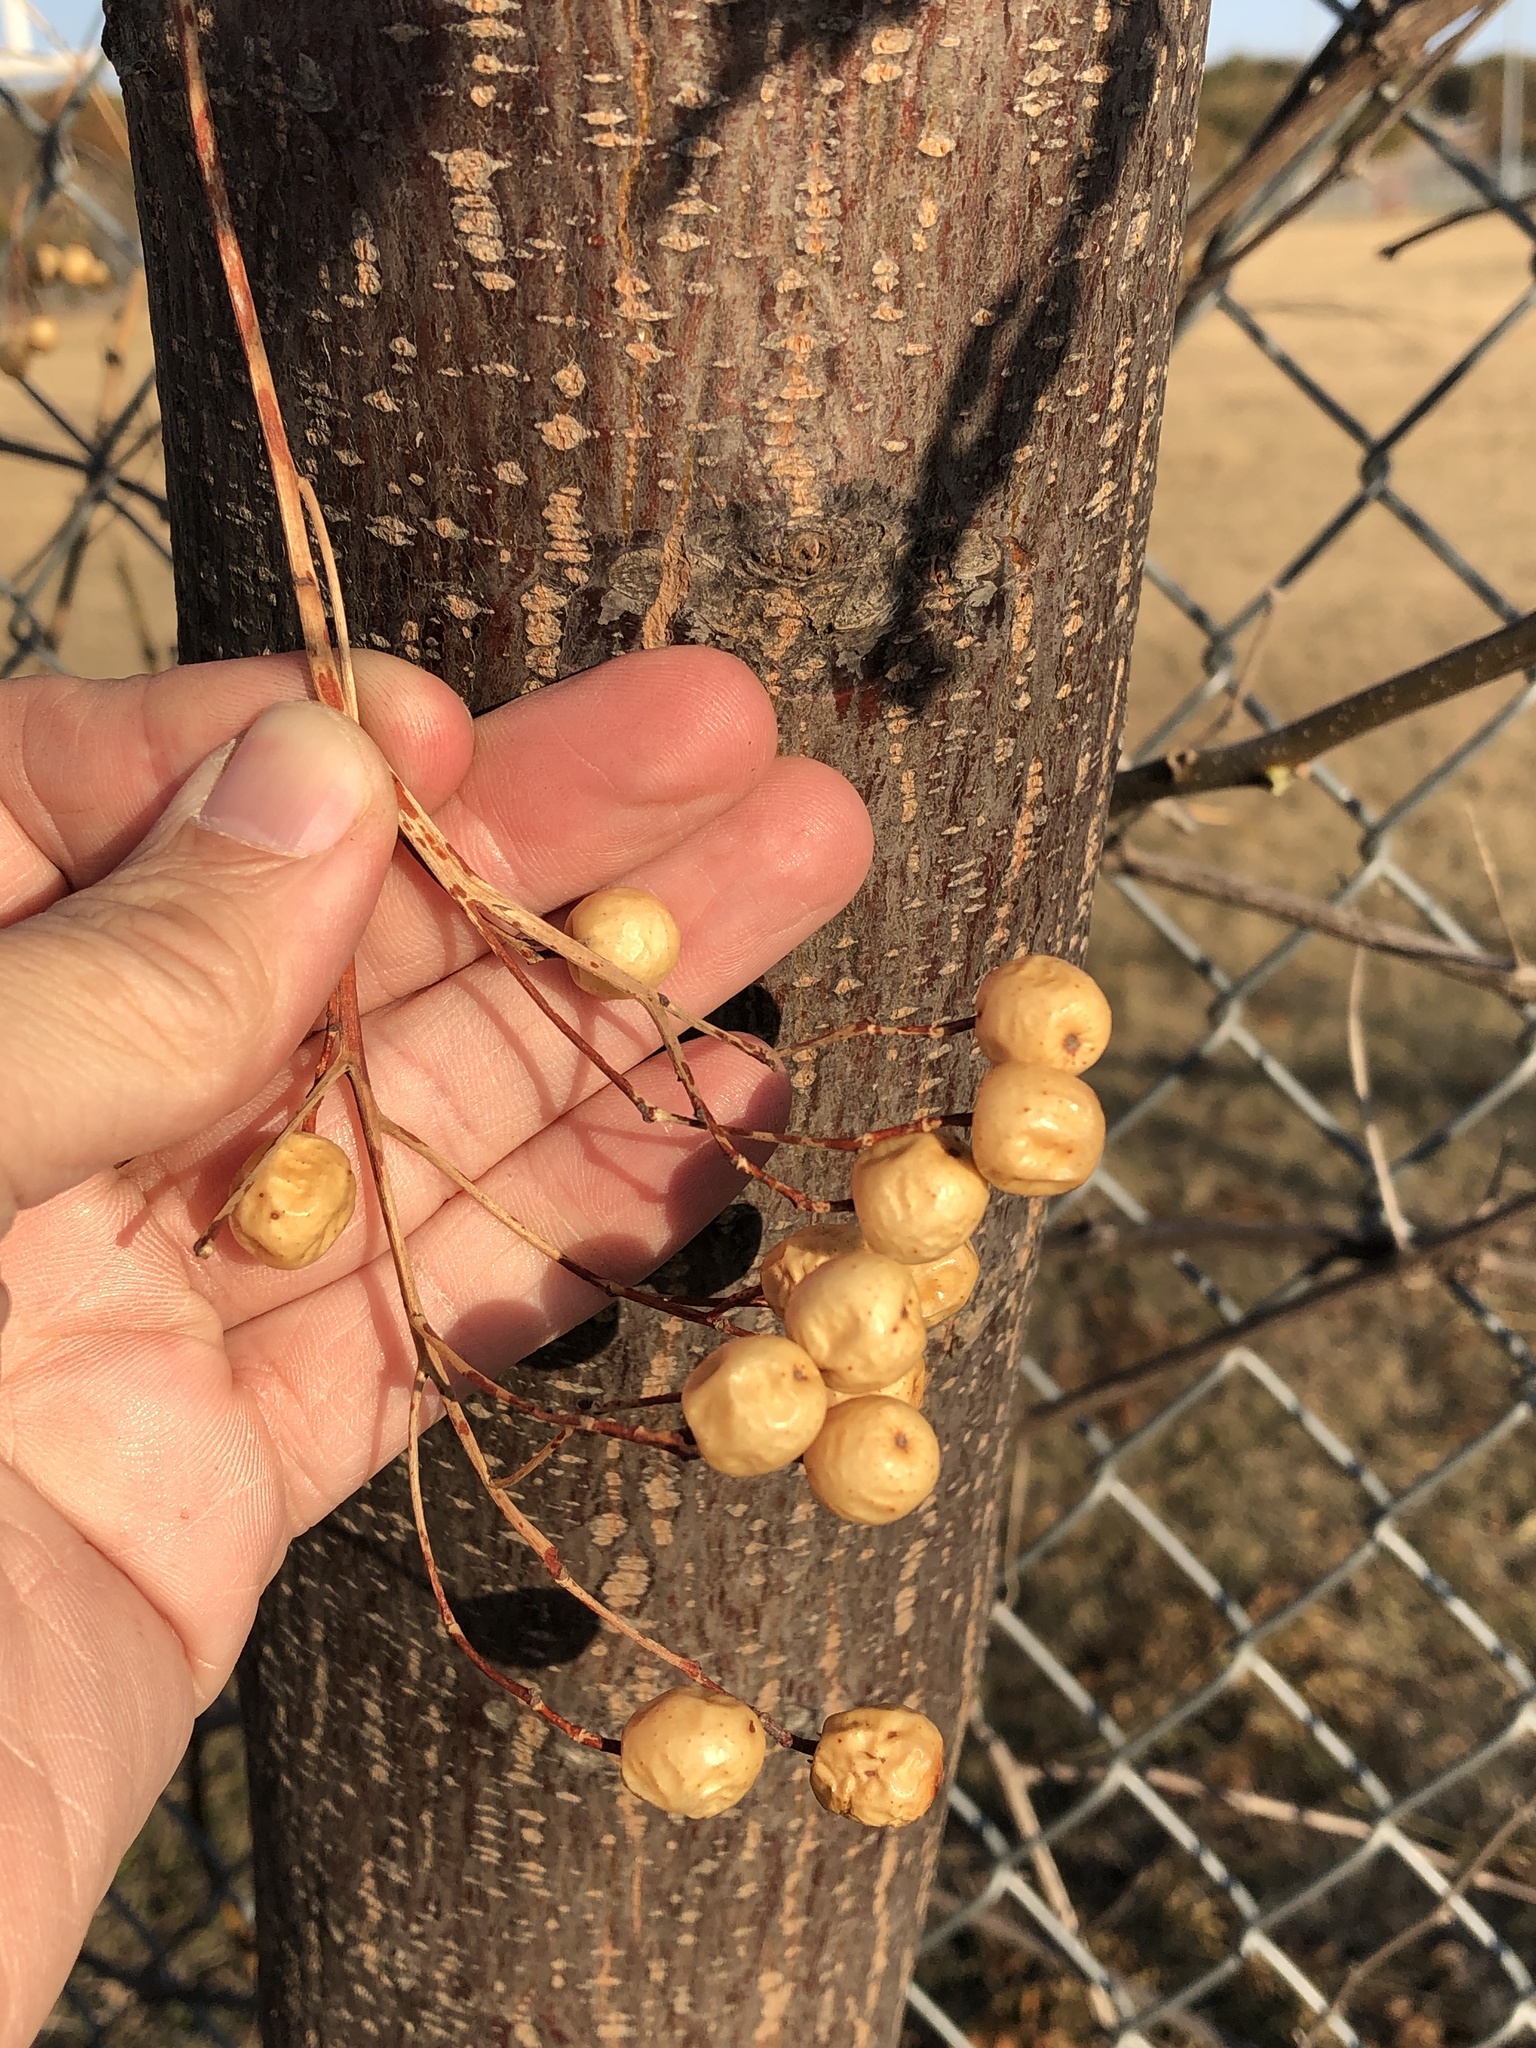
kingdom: Plantae
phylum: Tracheophyta
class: Magnoliopsida
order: Sapindales
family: Meliaceae
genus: Melia
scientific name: Melia azedarach
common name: Chinaberrytree
